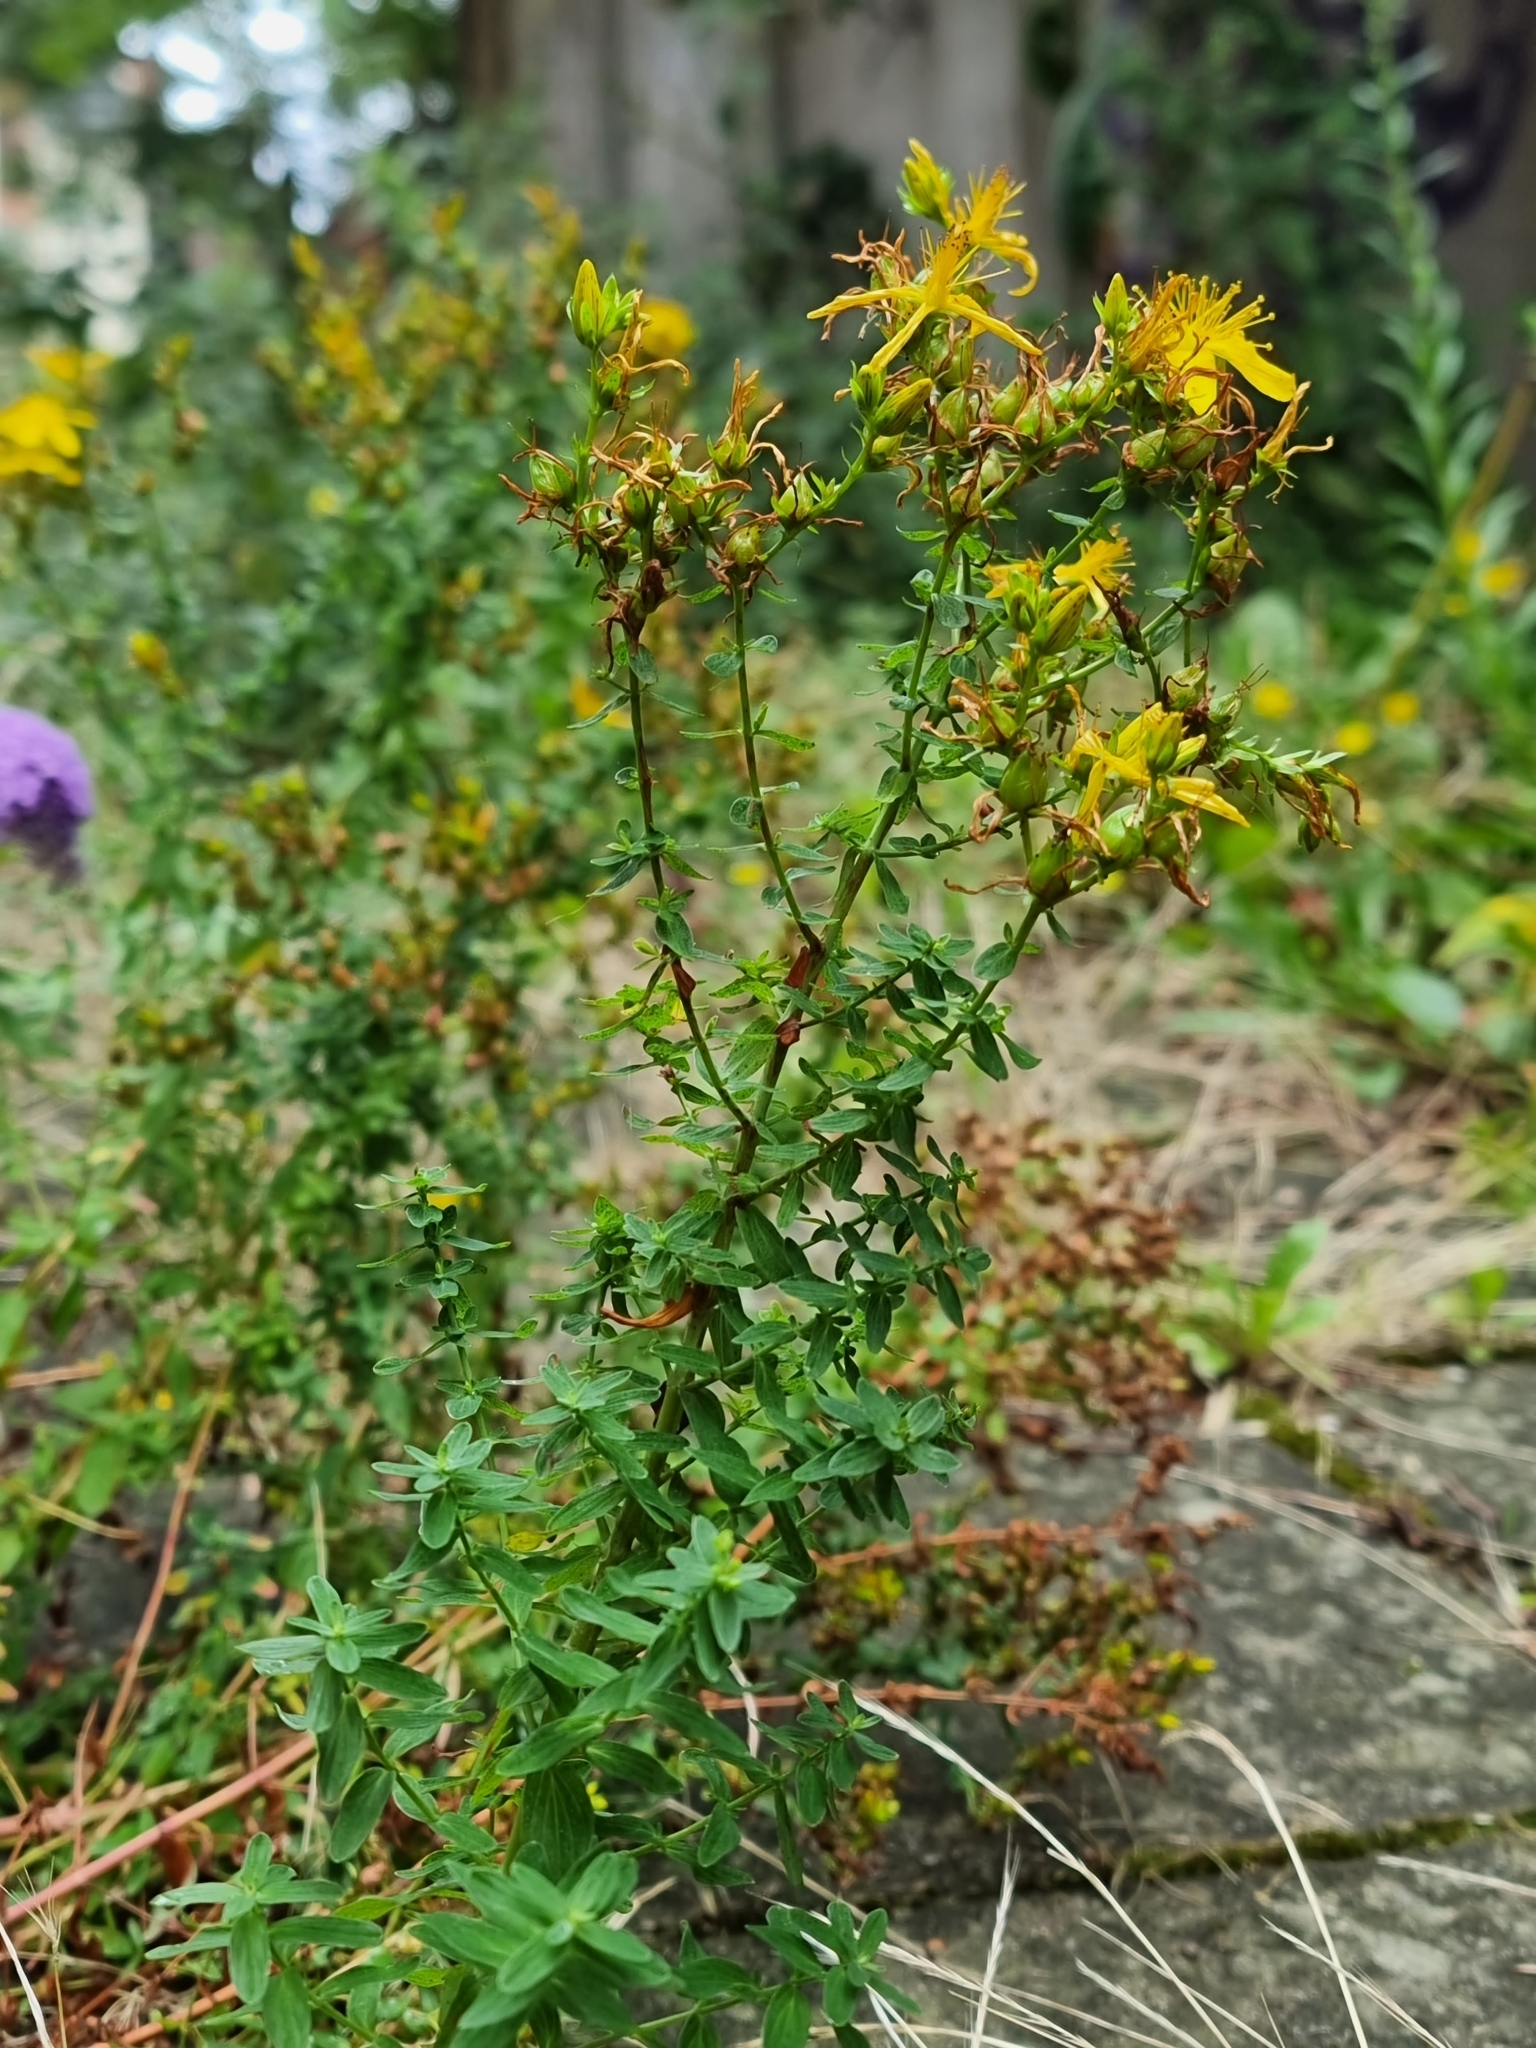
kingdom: Plantae
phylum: Tracheophyta
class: Magnoliopsida
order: Malpighiales
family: Hypericaceae
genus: Hypericum
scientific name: Hypericum perforatum
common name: Common st. johnswort
